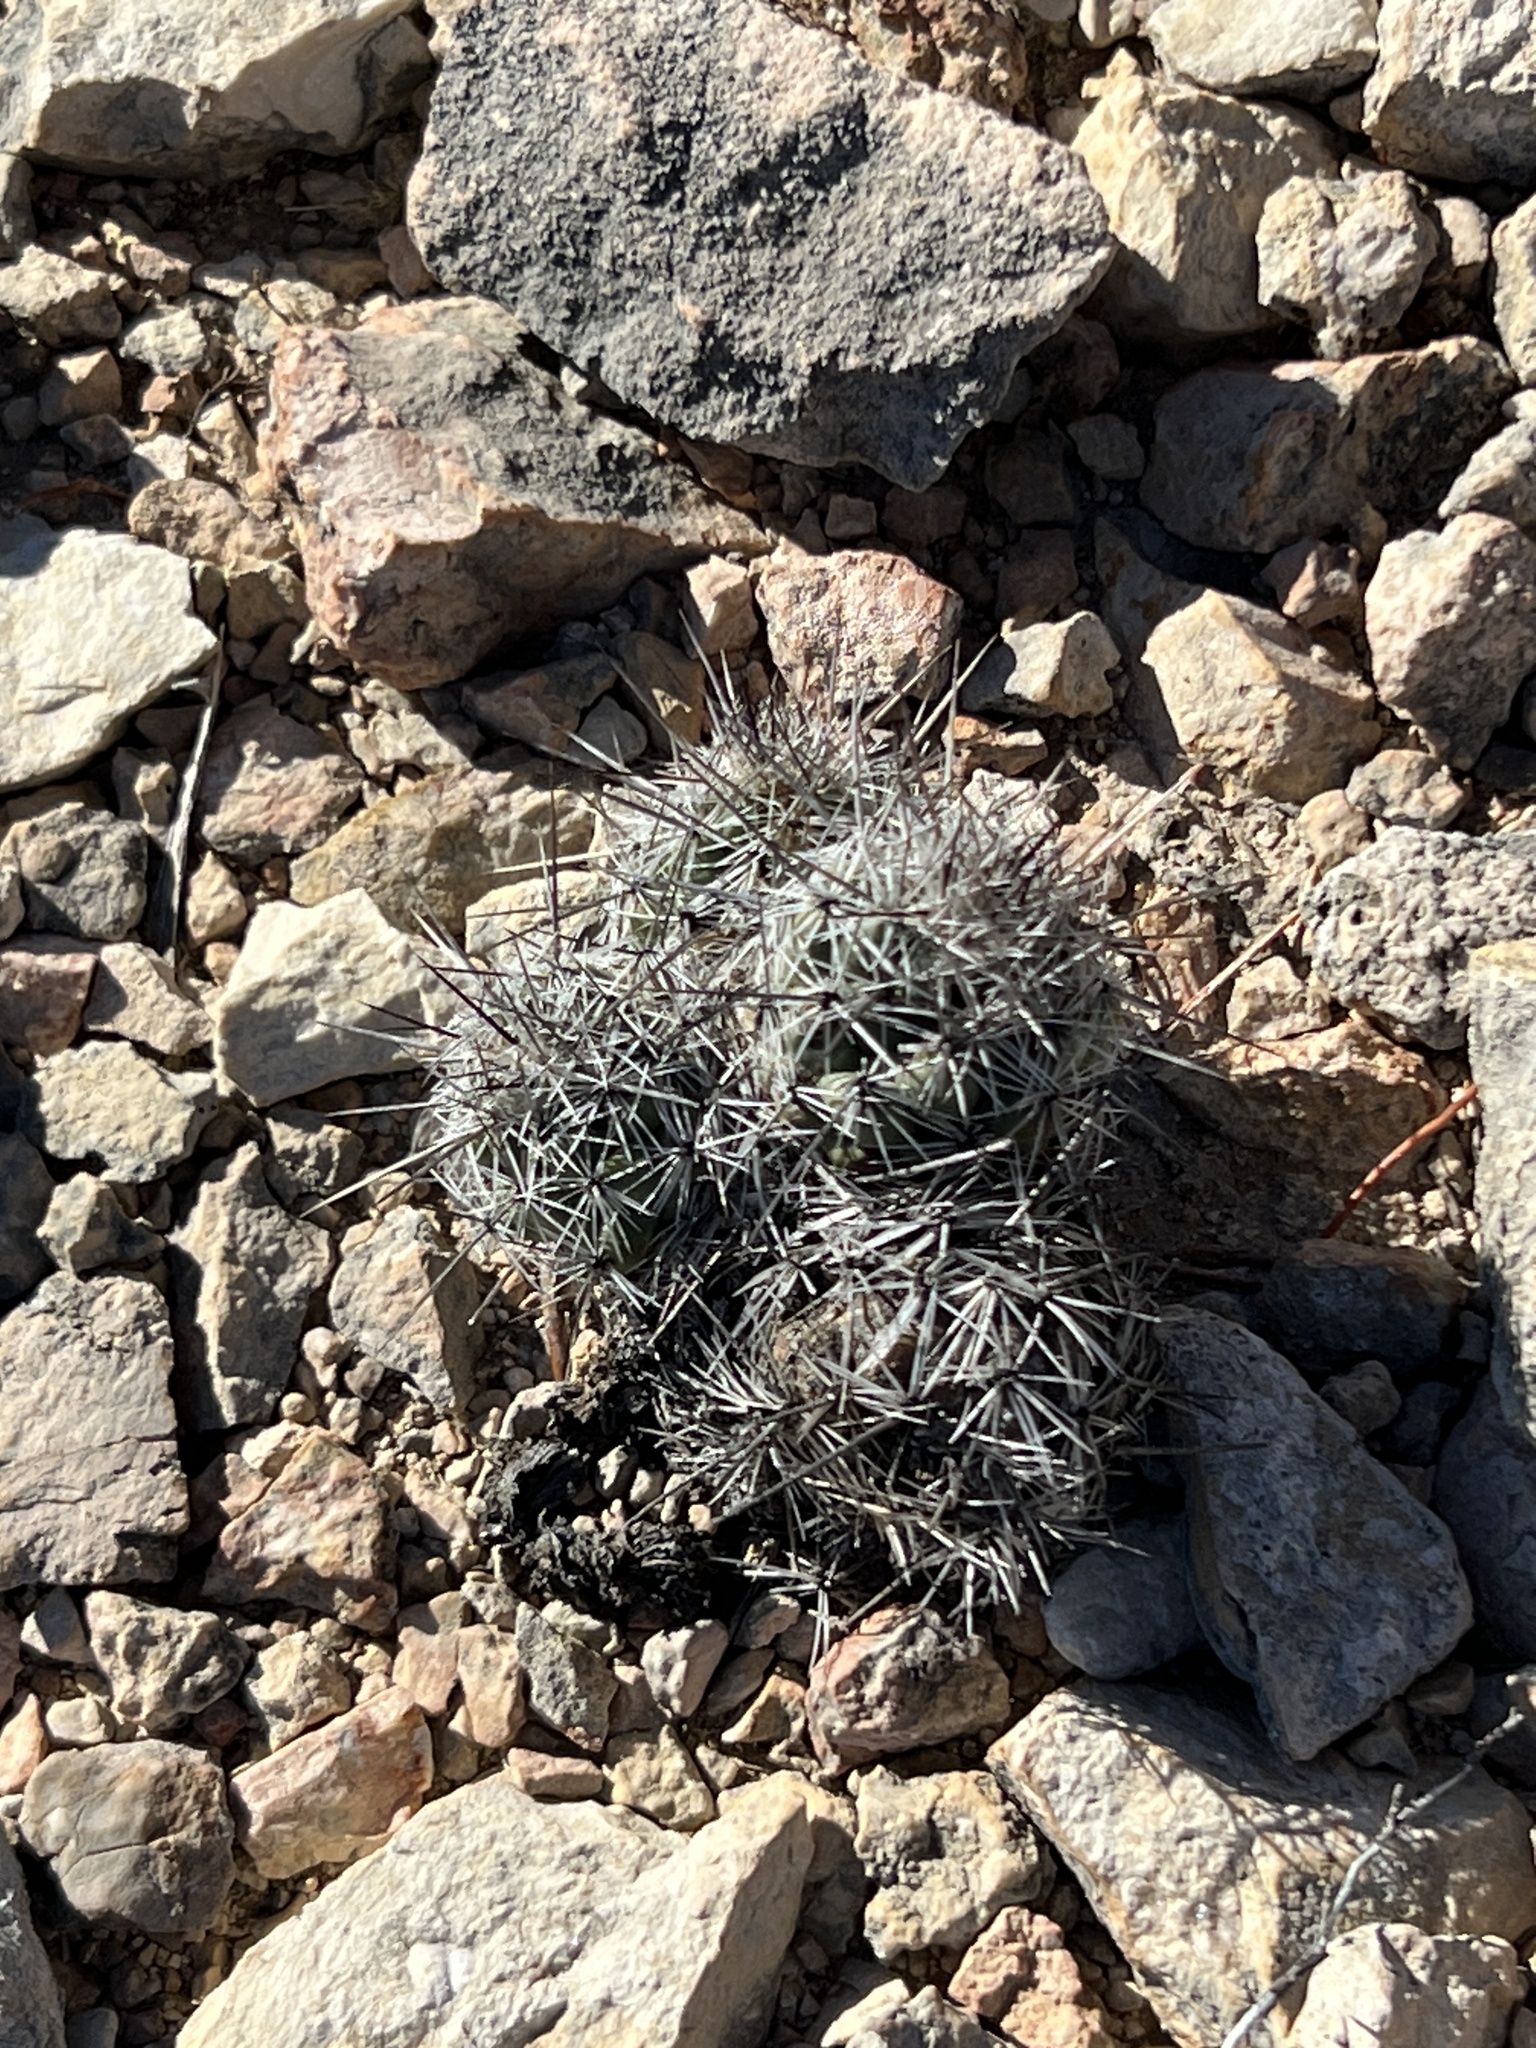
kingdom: Plantae
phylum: Tracheophyta
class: Magnoliopsida
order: Caryophyllales
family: Cactaceae
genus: Cochemiea
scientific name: Cochemiea conoidea
